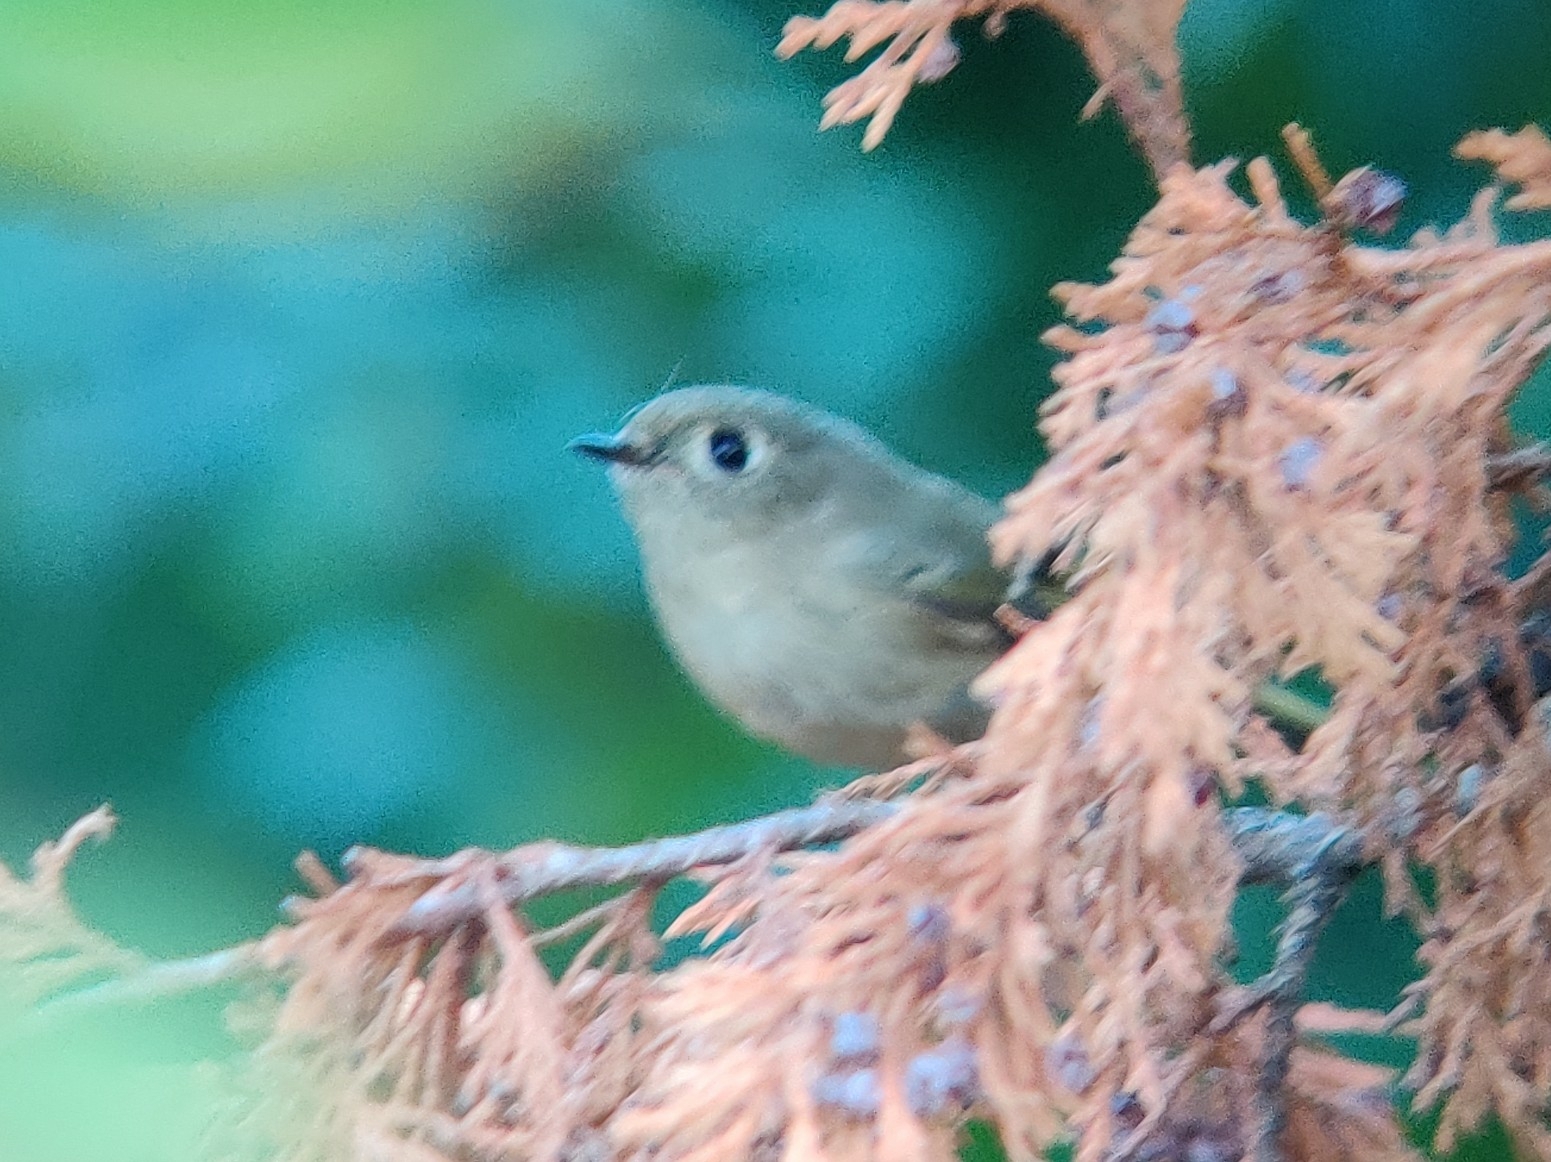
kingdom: Animalia
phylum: Chordata
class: Aves
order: Passeriformes
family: Regulidae
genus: Regulus
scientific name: Regulus calendula
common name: Ruby-crowned kinglet
